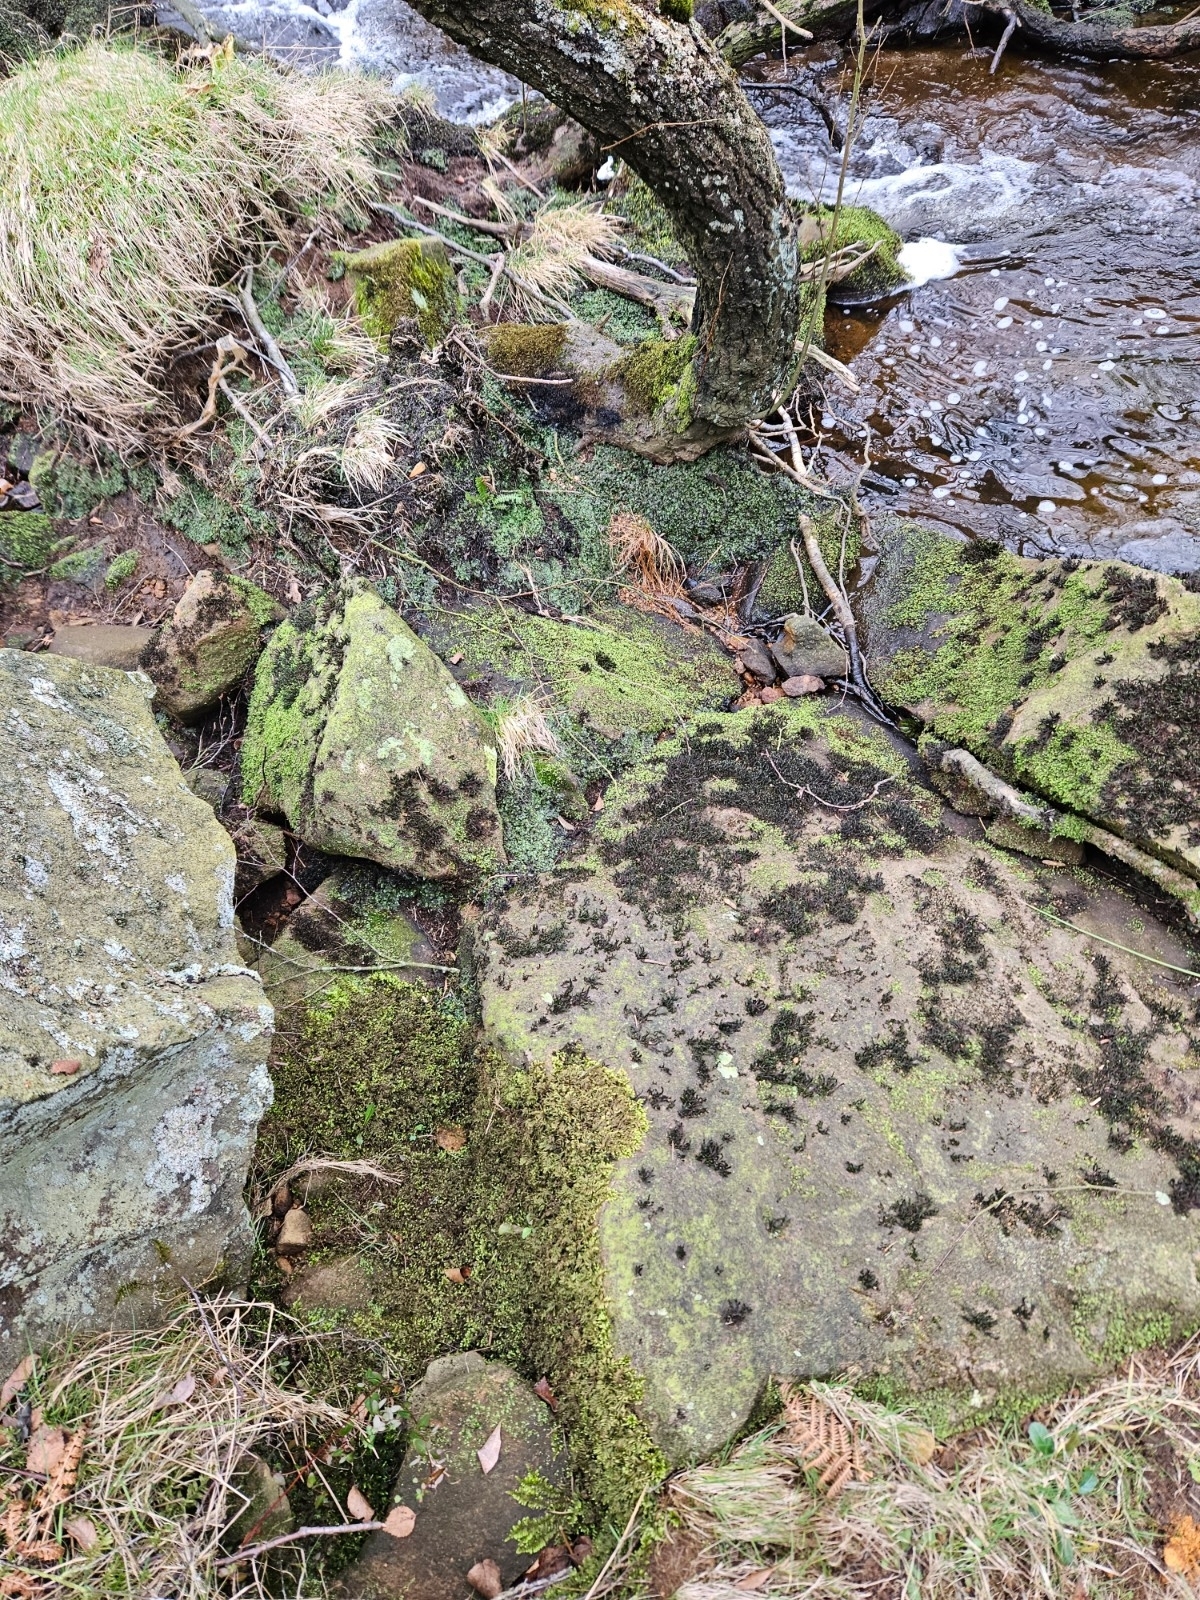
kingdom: Plantae
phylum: Bryophyta
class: Bryopsida
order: Hypnales
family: Myuriaceae
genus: Hyocomium
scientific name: Hyocomium armoricum
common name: Flagellate feather-moss
